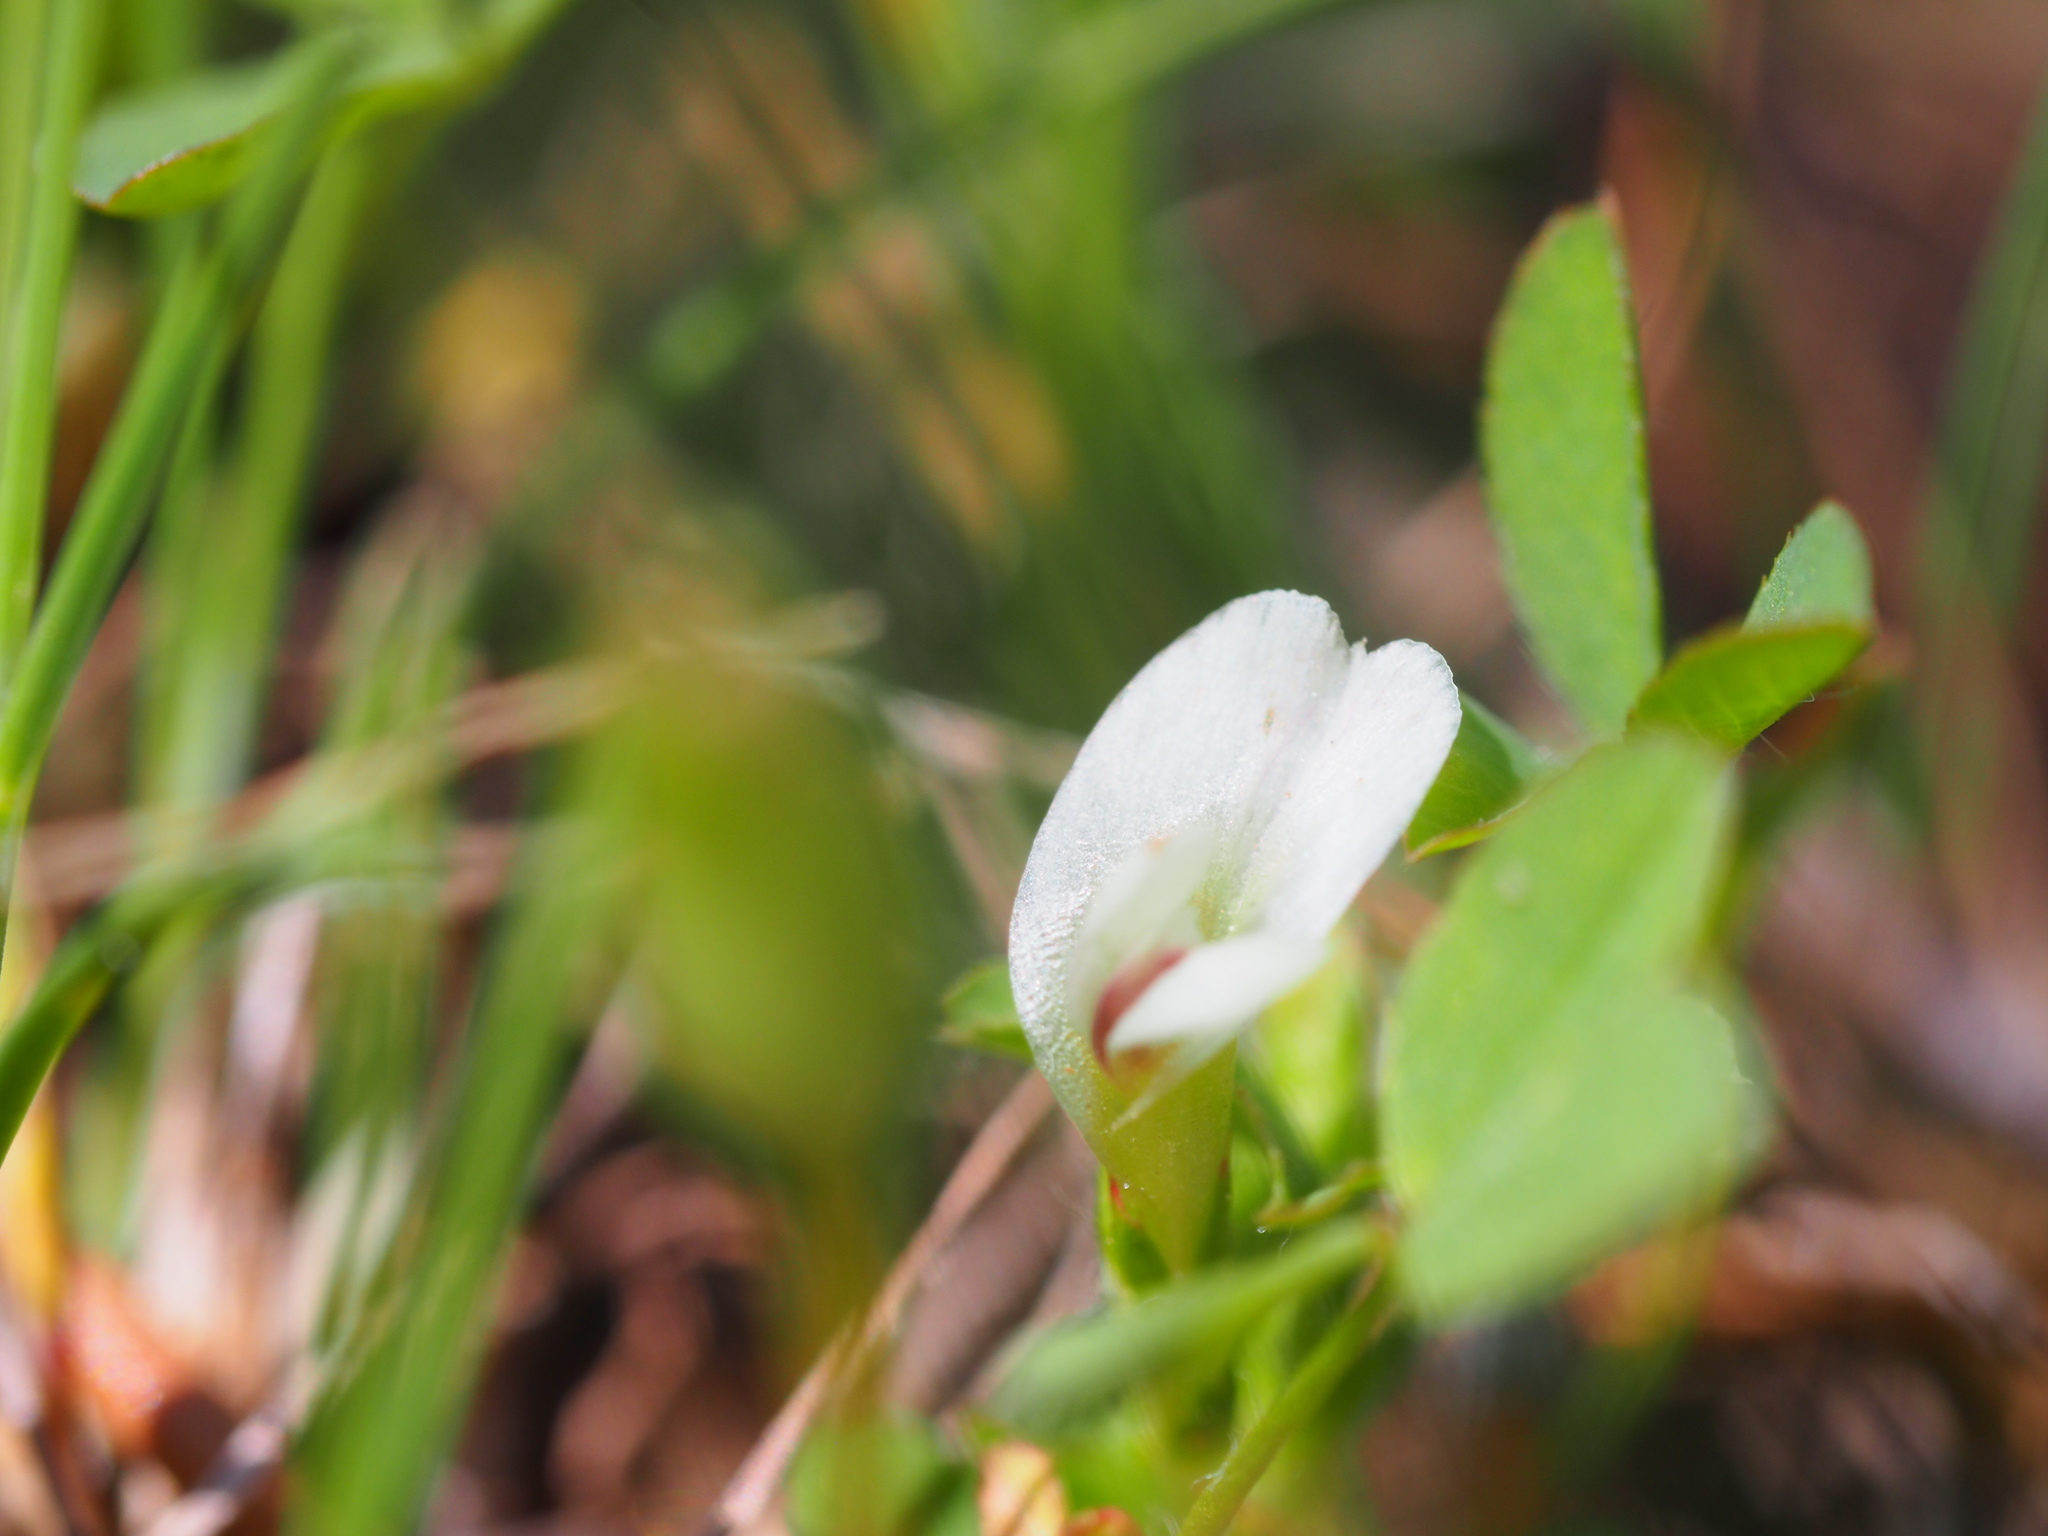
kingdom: Plantae
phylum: Tracheophyta
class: Magnoliopsida
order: Fabales
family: Fabaceae
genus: Trifolium
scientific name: Trifolium monanthum
